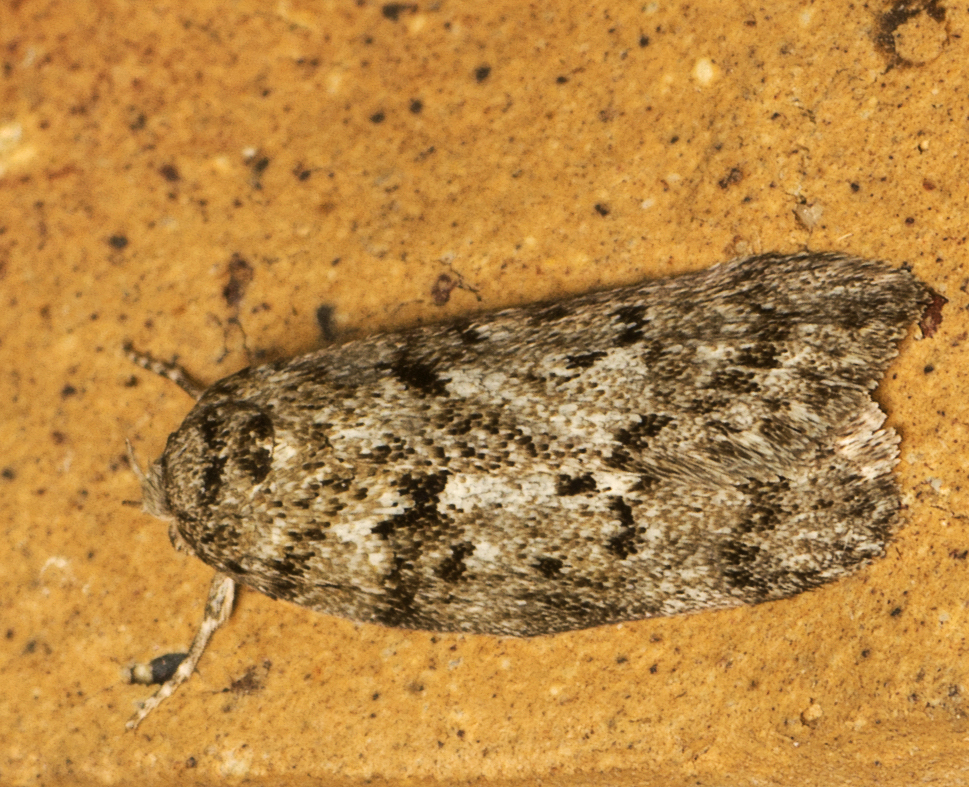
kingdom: Animalia
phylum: Arthropoda
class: Insecta
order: Lepidoptera
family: Oecophoridae
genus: Philobota
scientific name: Philobota philostaura
